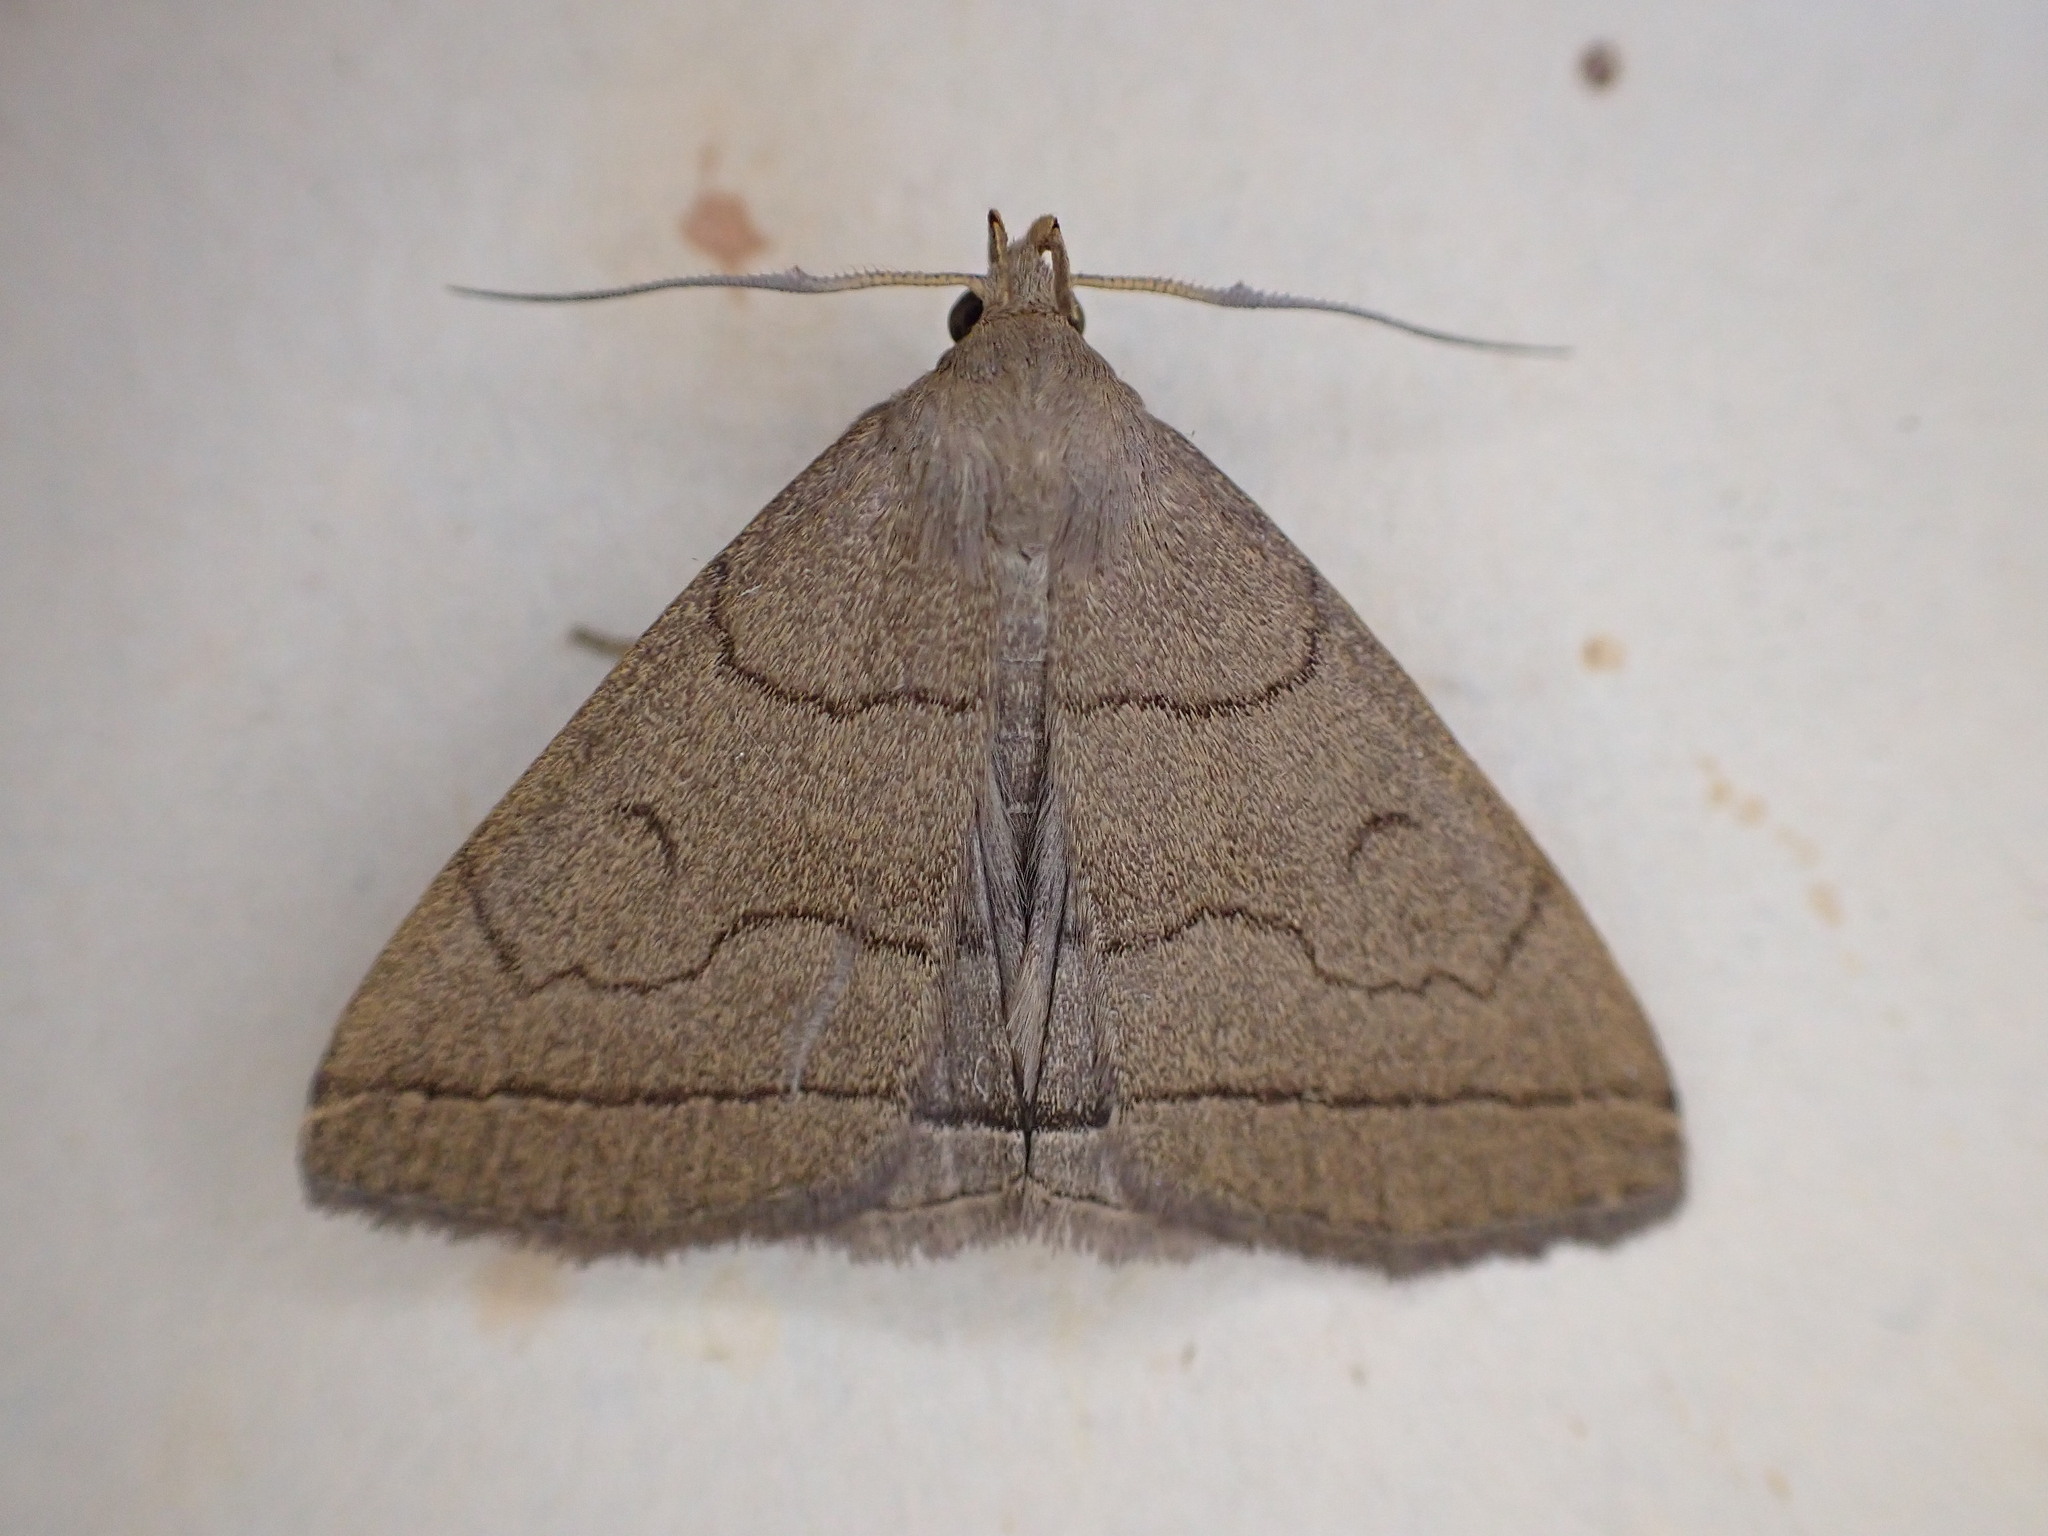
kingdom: Animalia
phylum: Arthropoda
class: Insecta
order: Lepidoptera
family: Erebidae
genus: Herminia
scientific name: Herminia tarsipennalis
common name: Fan-foot
